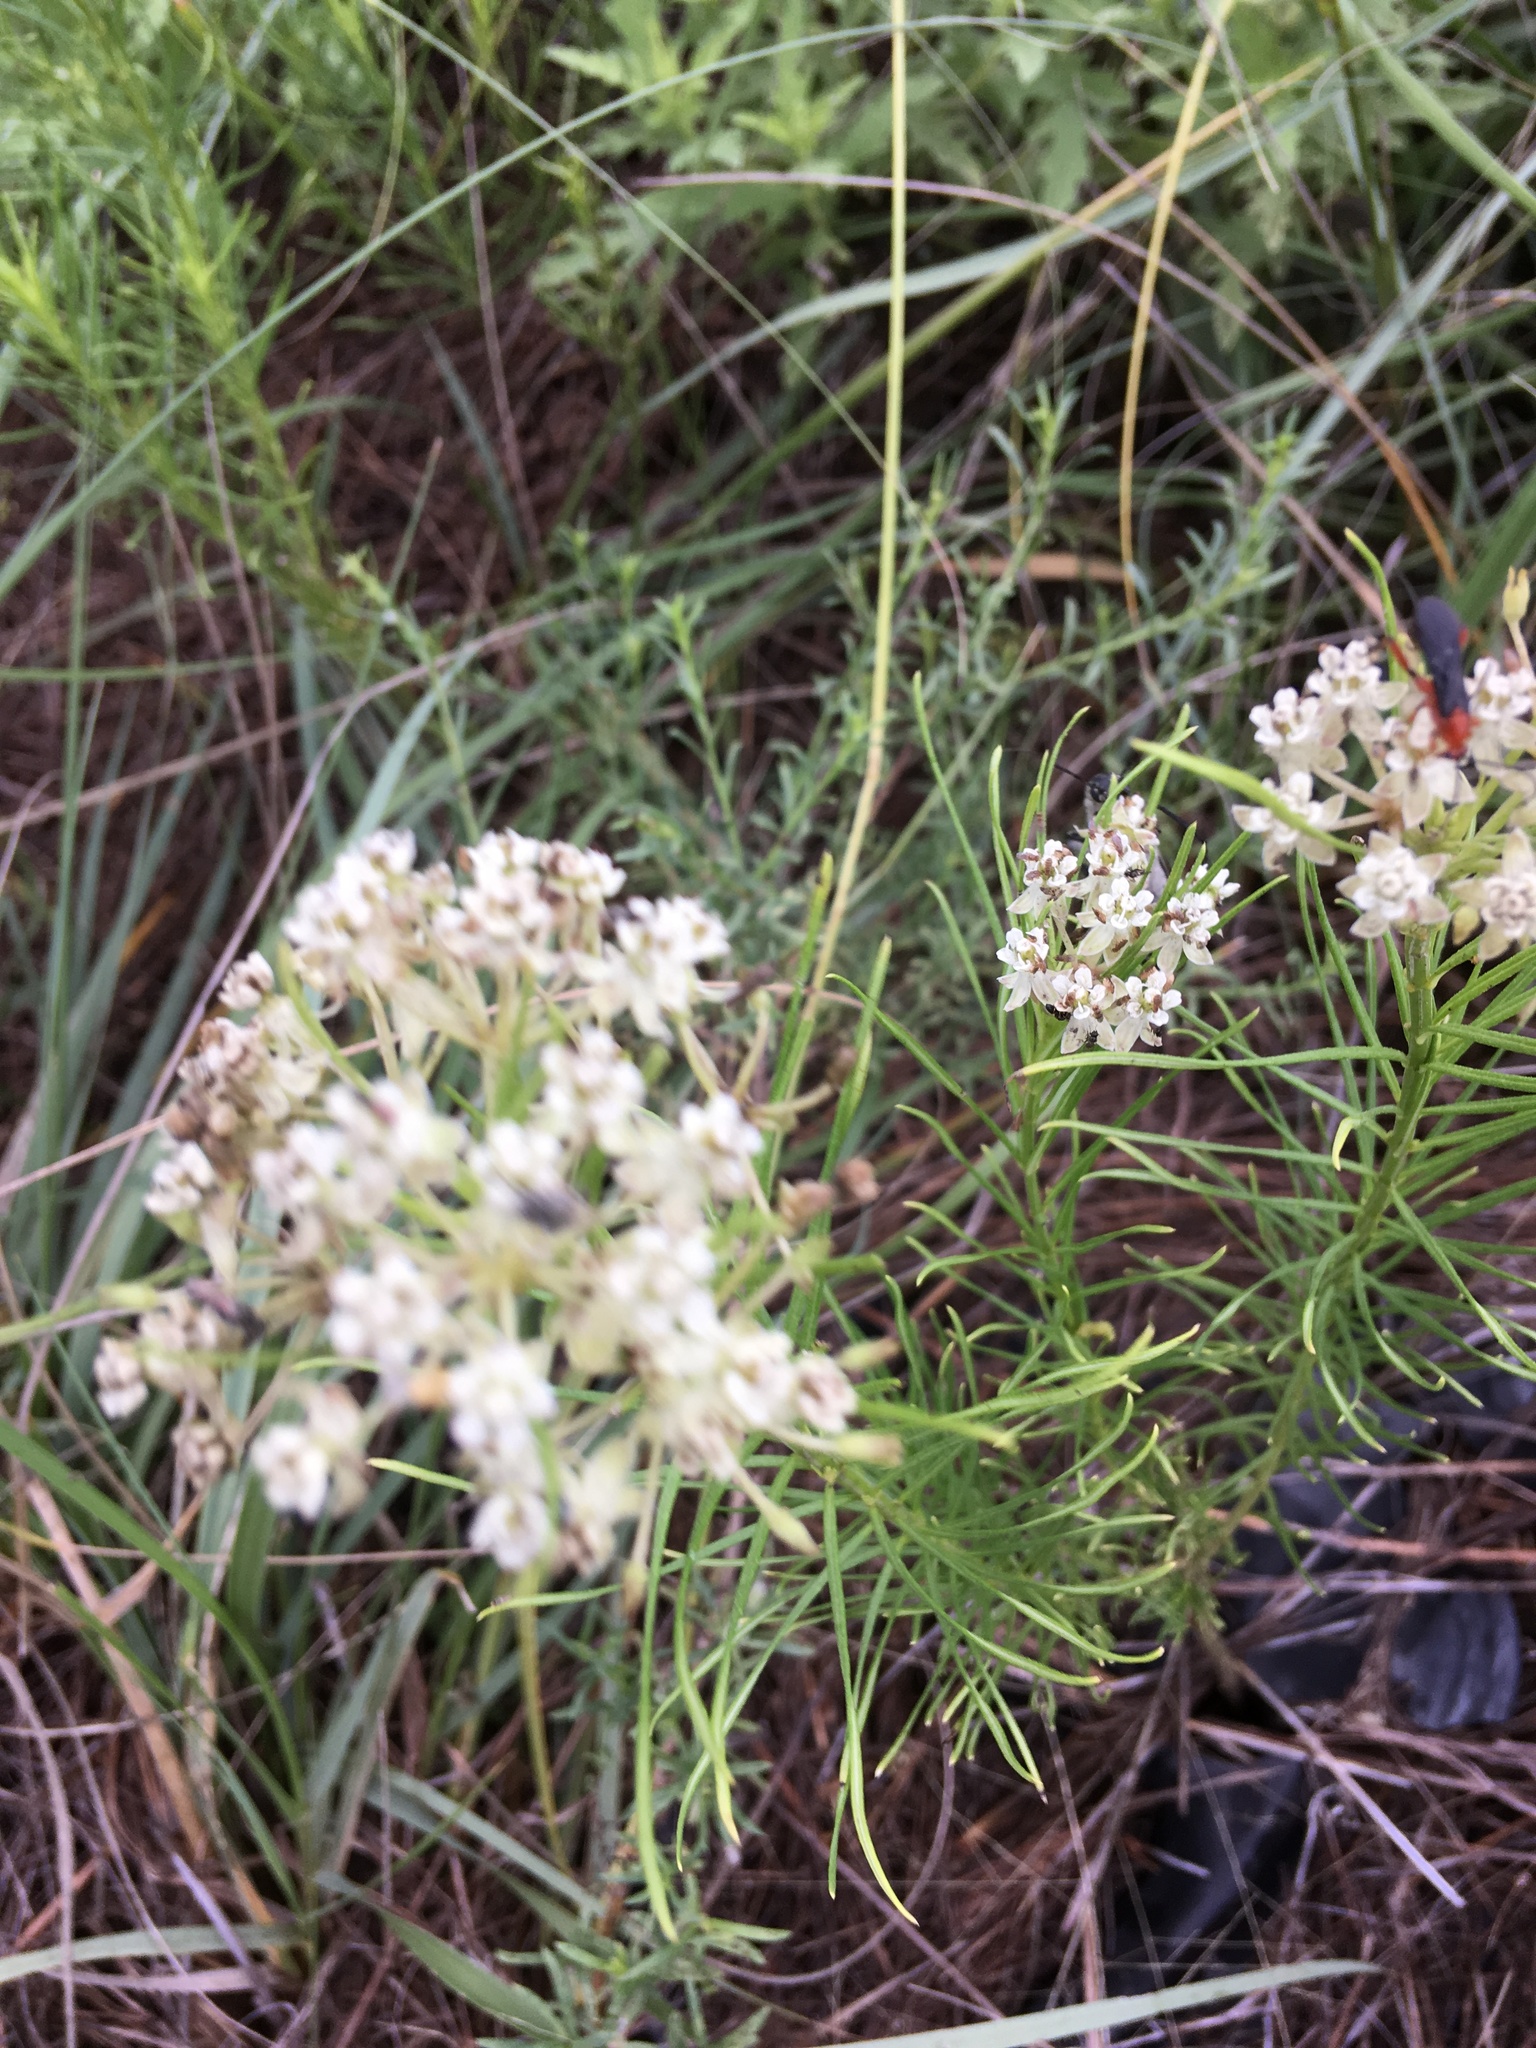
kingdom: Plantae
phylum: Tracheophyta
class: Magnoliopsida
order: Gentianales
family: Apocynaceae
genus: Asclepias
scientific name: Asclepias pumila
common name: Dwarf milkweed
